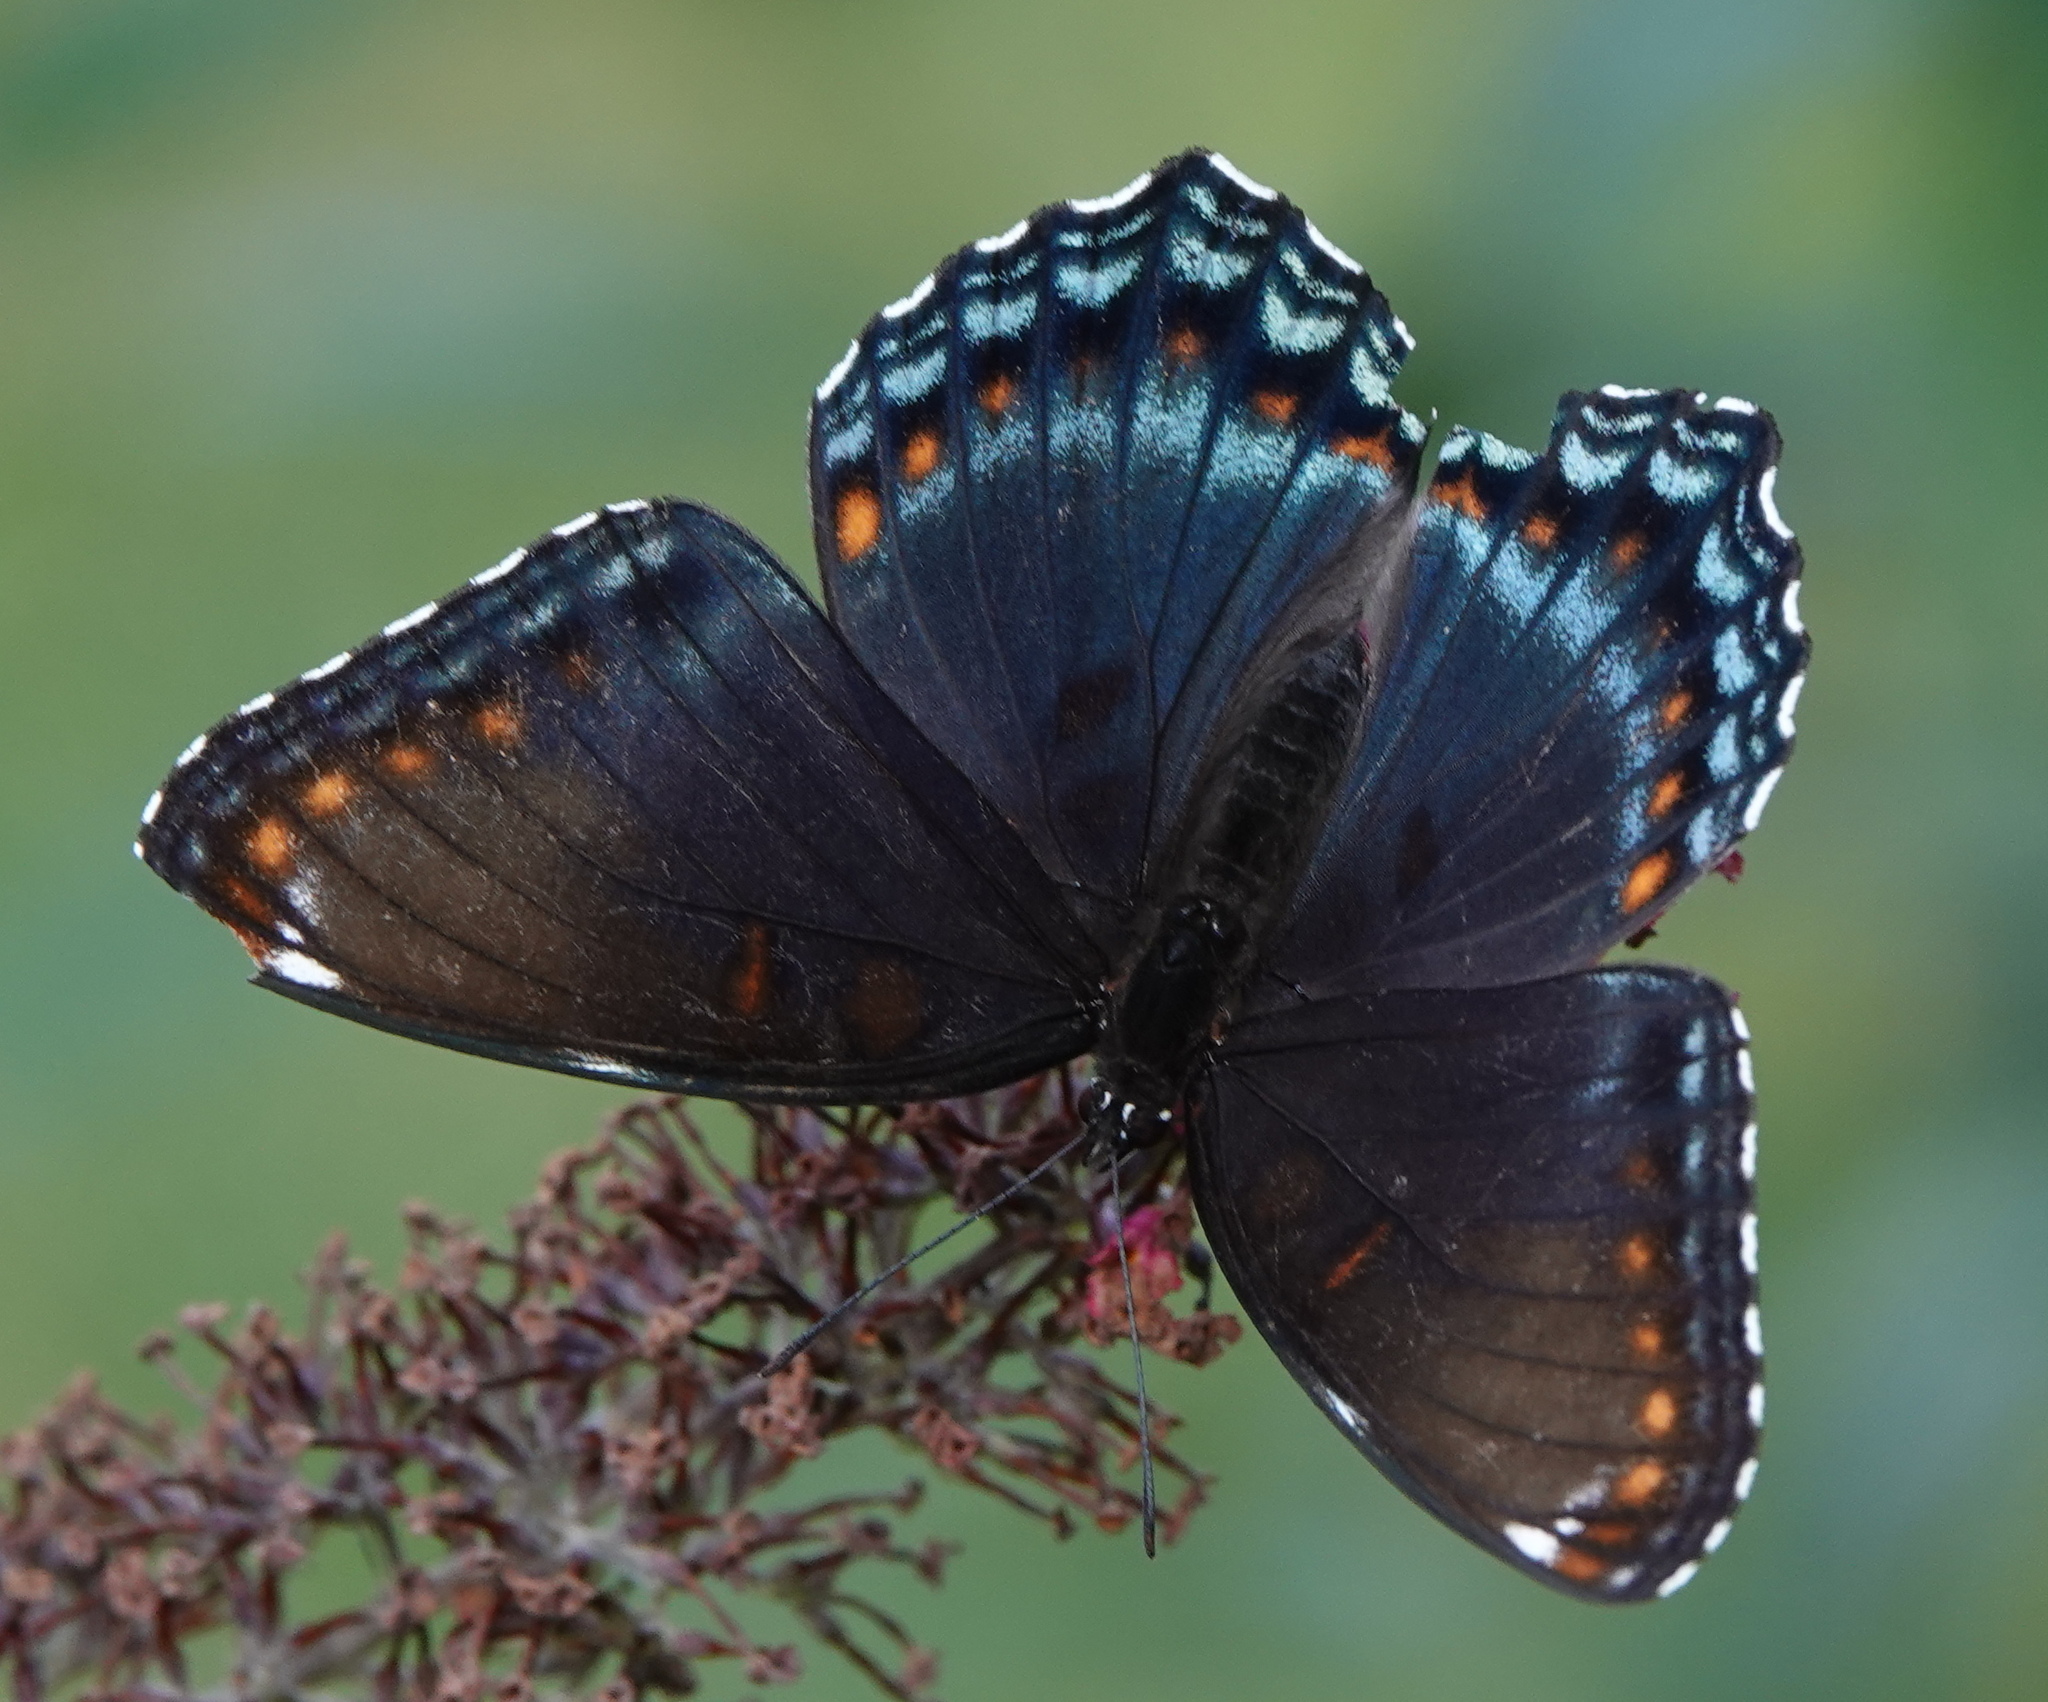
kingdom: Animalia
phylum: Arthropoda
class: Insecta
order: Lepidoptera
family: Nymphalidae
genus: Limenitis
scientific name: Limenitis astyanax
